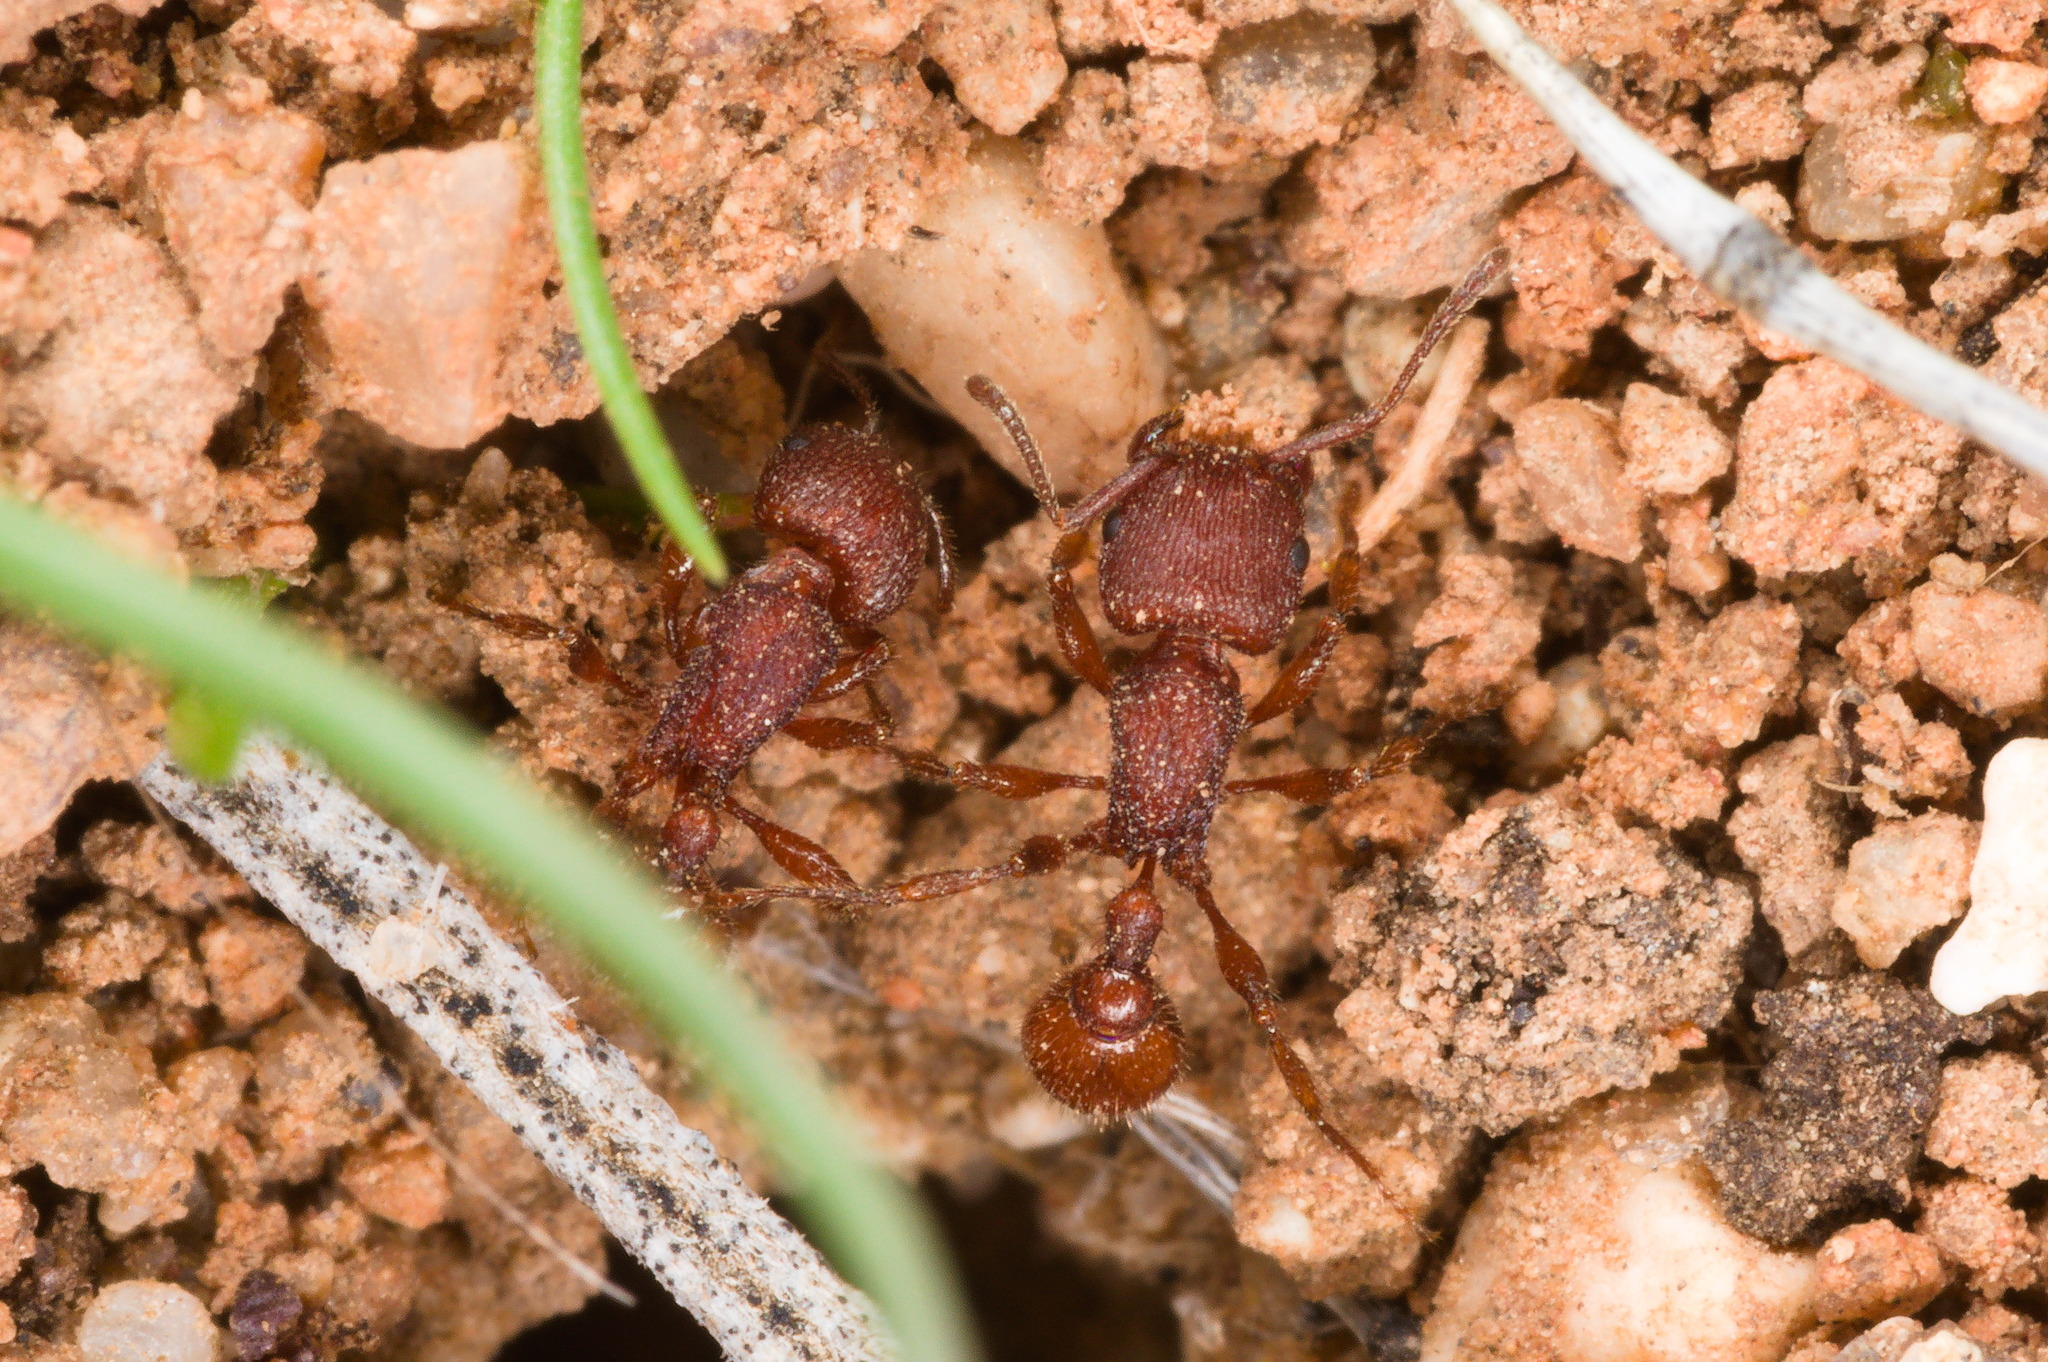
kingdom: Animalia
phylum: Arthropoda
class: Insecta
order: Hymenoptera
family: Formicidae
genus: Pogonomyrmex
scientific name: Pogonomyrmex pima
